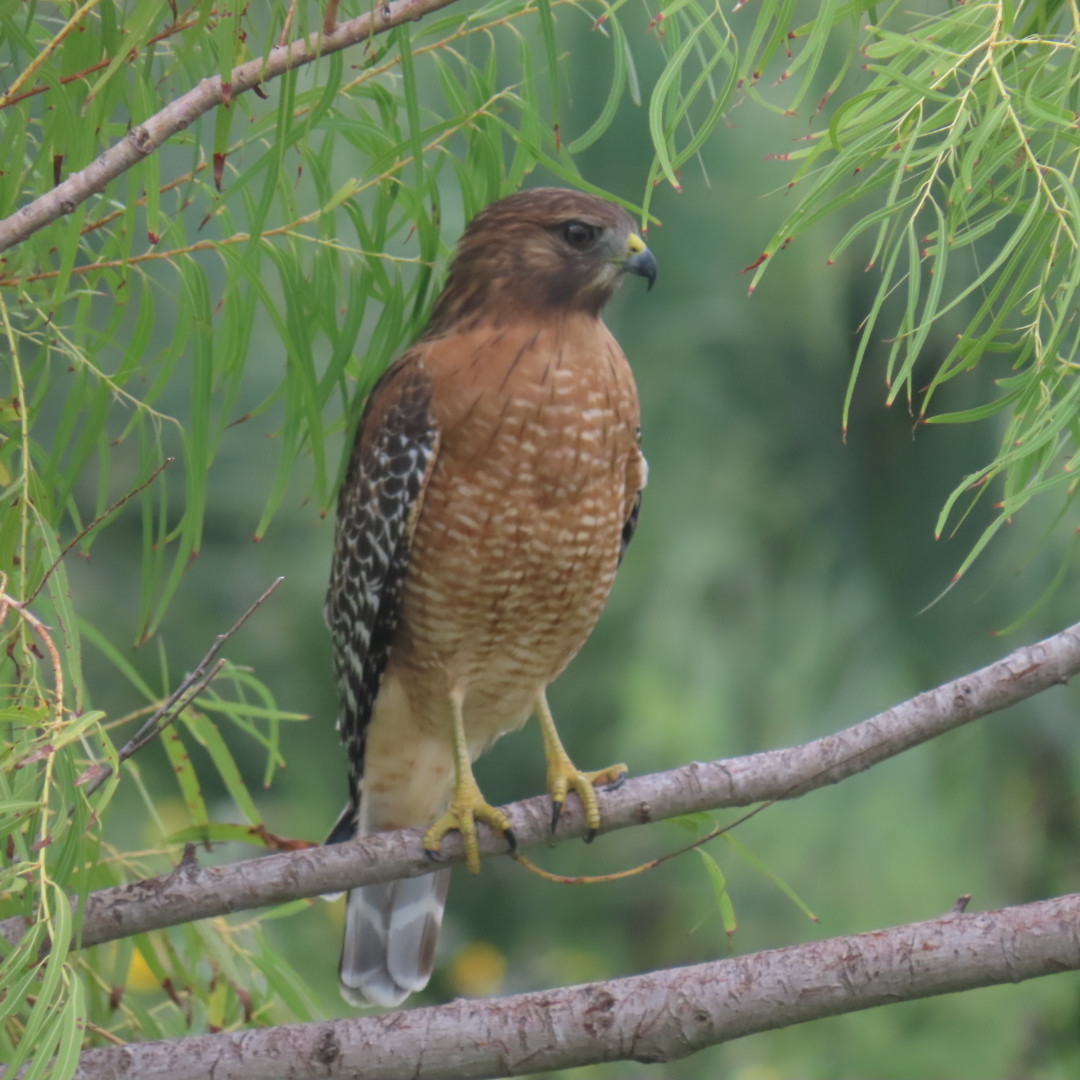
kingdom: Animalia
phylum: Chordata
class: Aves
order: Accipitriformes
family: Accipitridae
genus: Buteo
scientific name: Buteo lineatus
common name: Red-shouldered hawk
